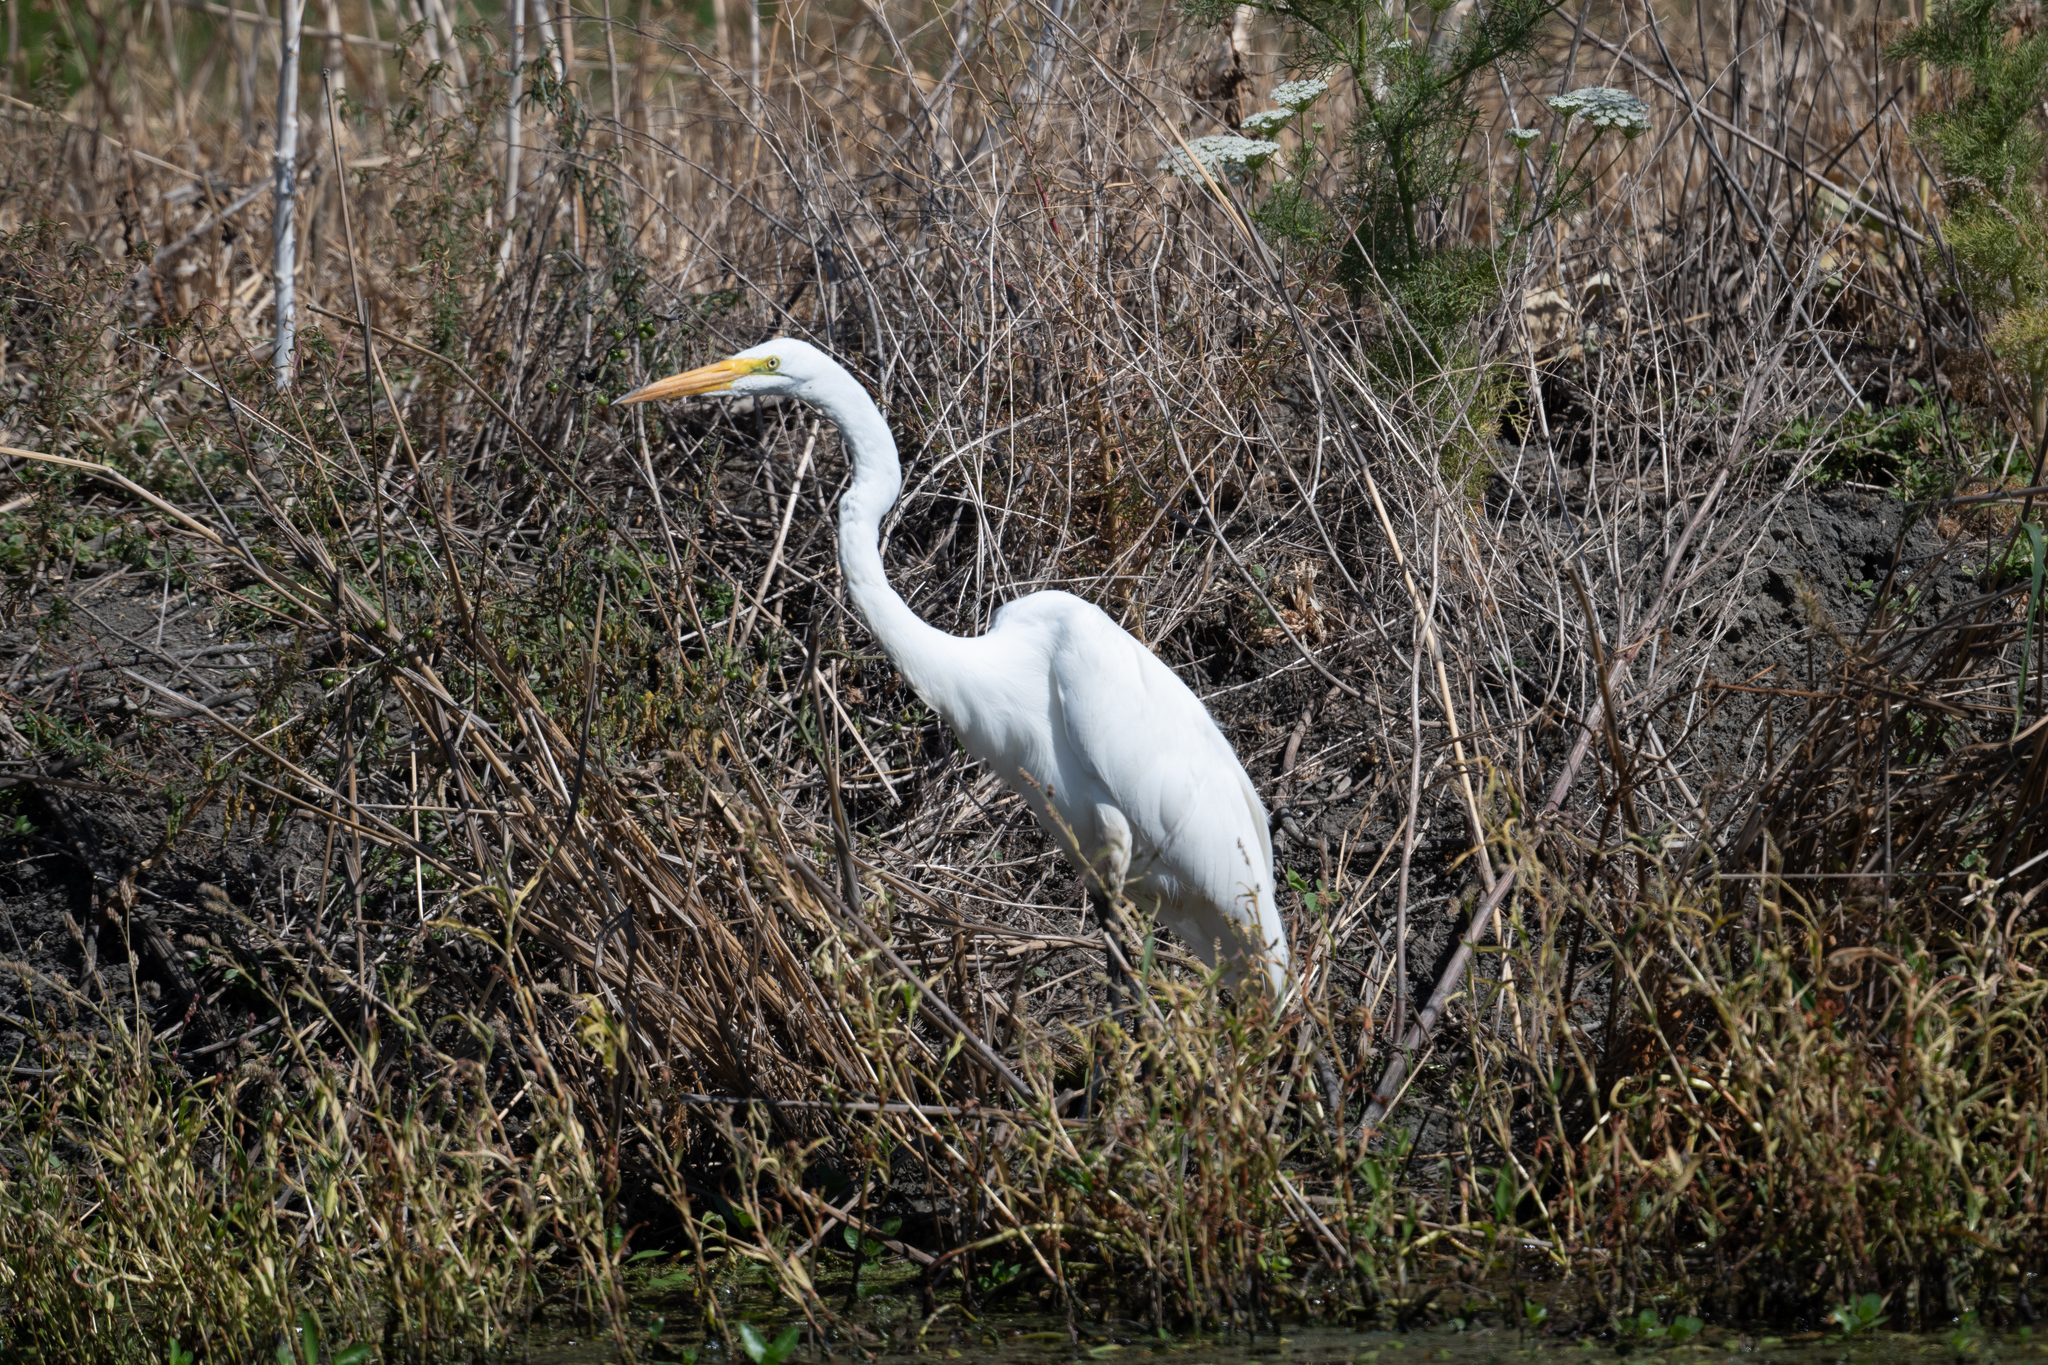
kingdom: Animalia
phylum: Chordata
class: Aves
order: Pelecaniformes
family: Ardeidae
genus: Ardea
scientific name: Ardea alba
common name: Great egret
